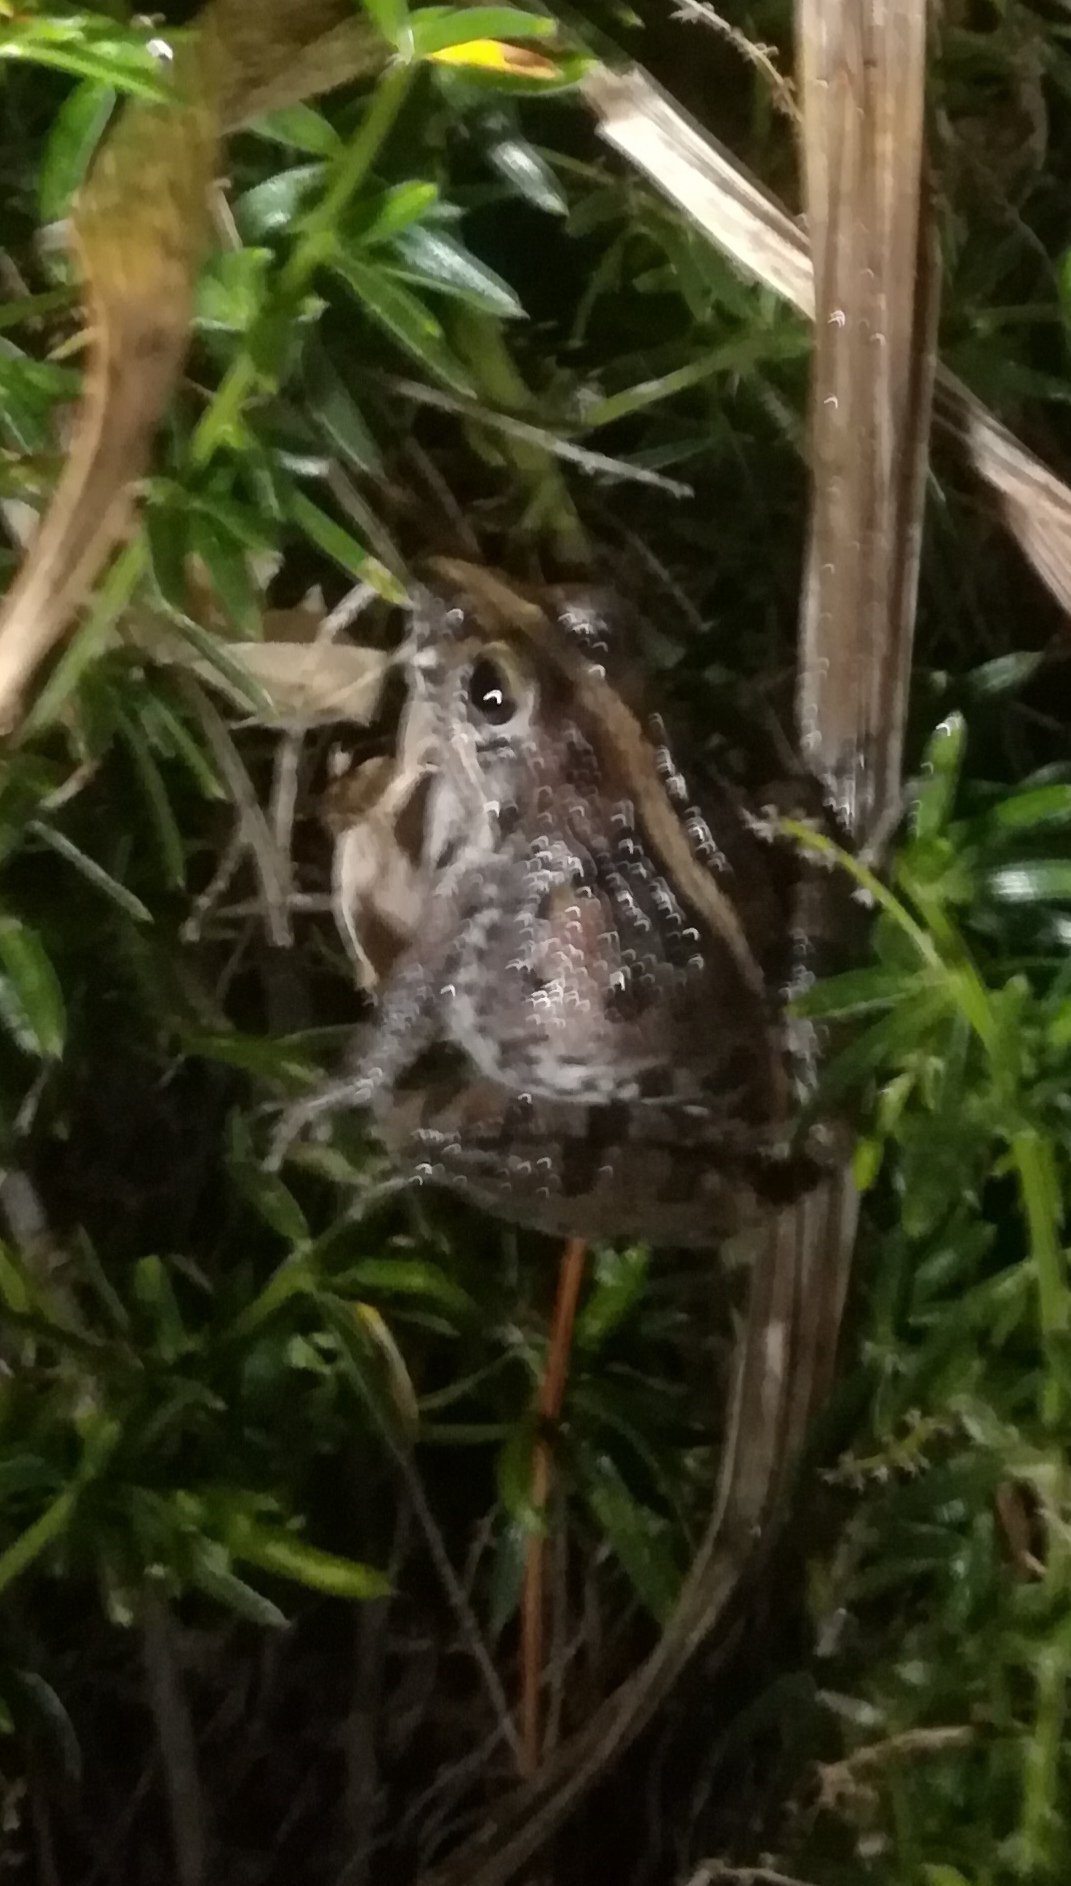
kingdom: Animalia
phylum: Chordata
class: Amphibia
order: Anura
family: Pyxicephalidae
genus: Strongylopus
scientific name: Strongylopus grayii
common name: Gray's stream frog
